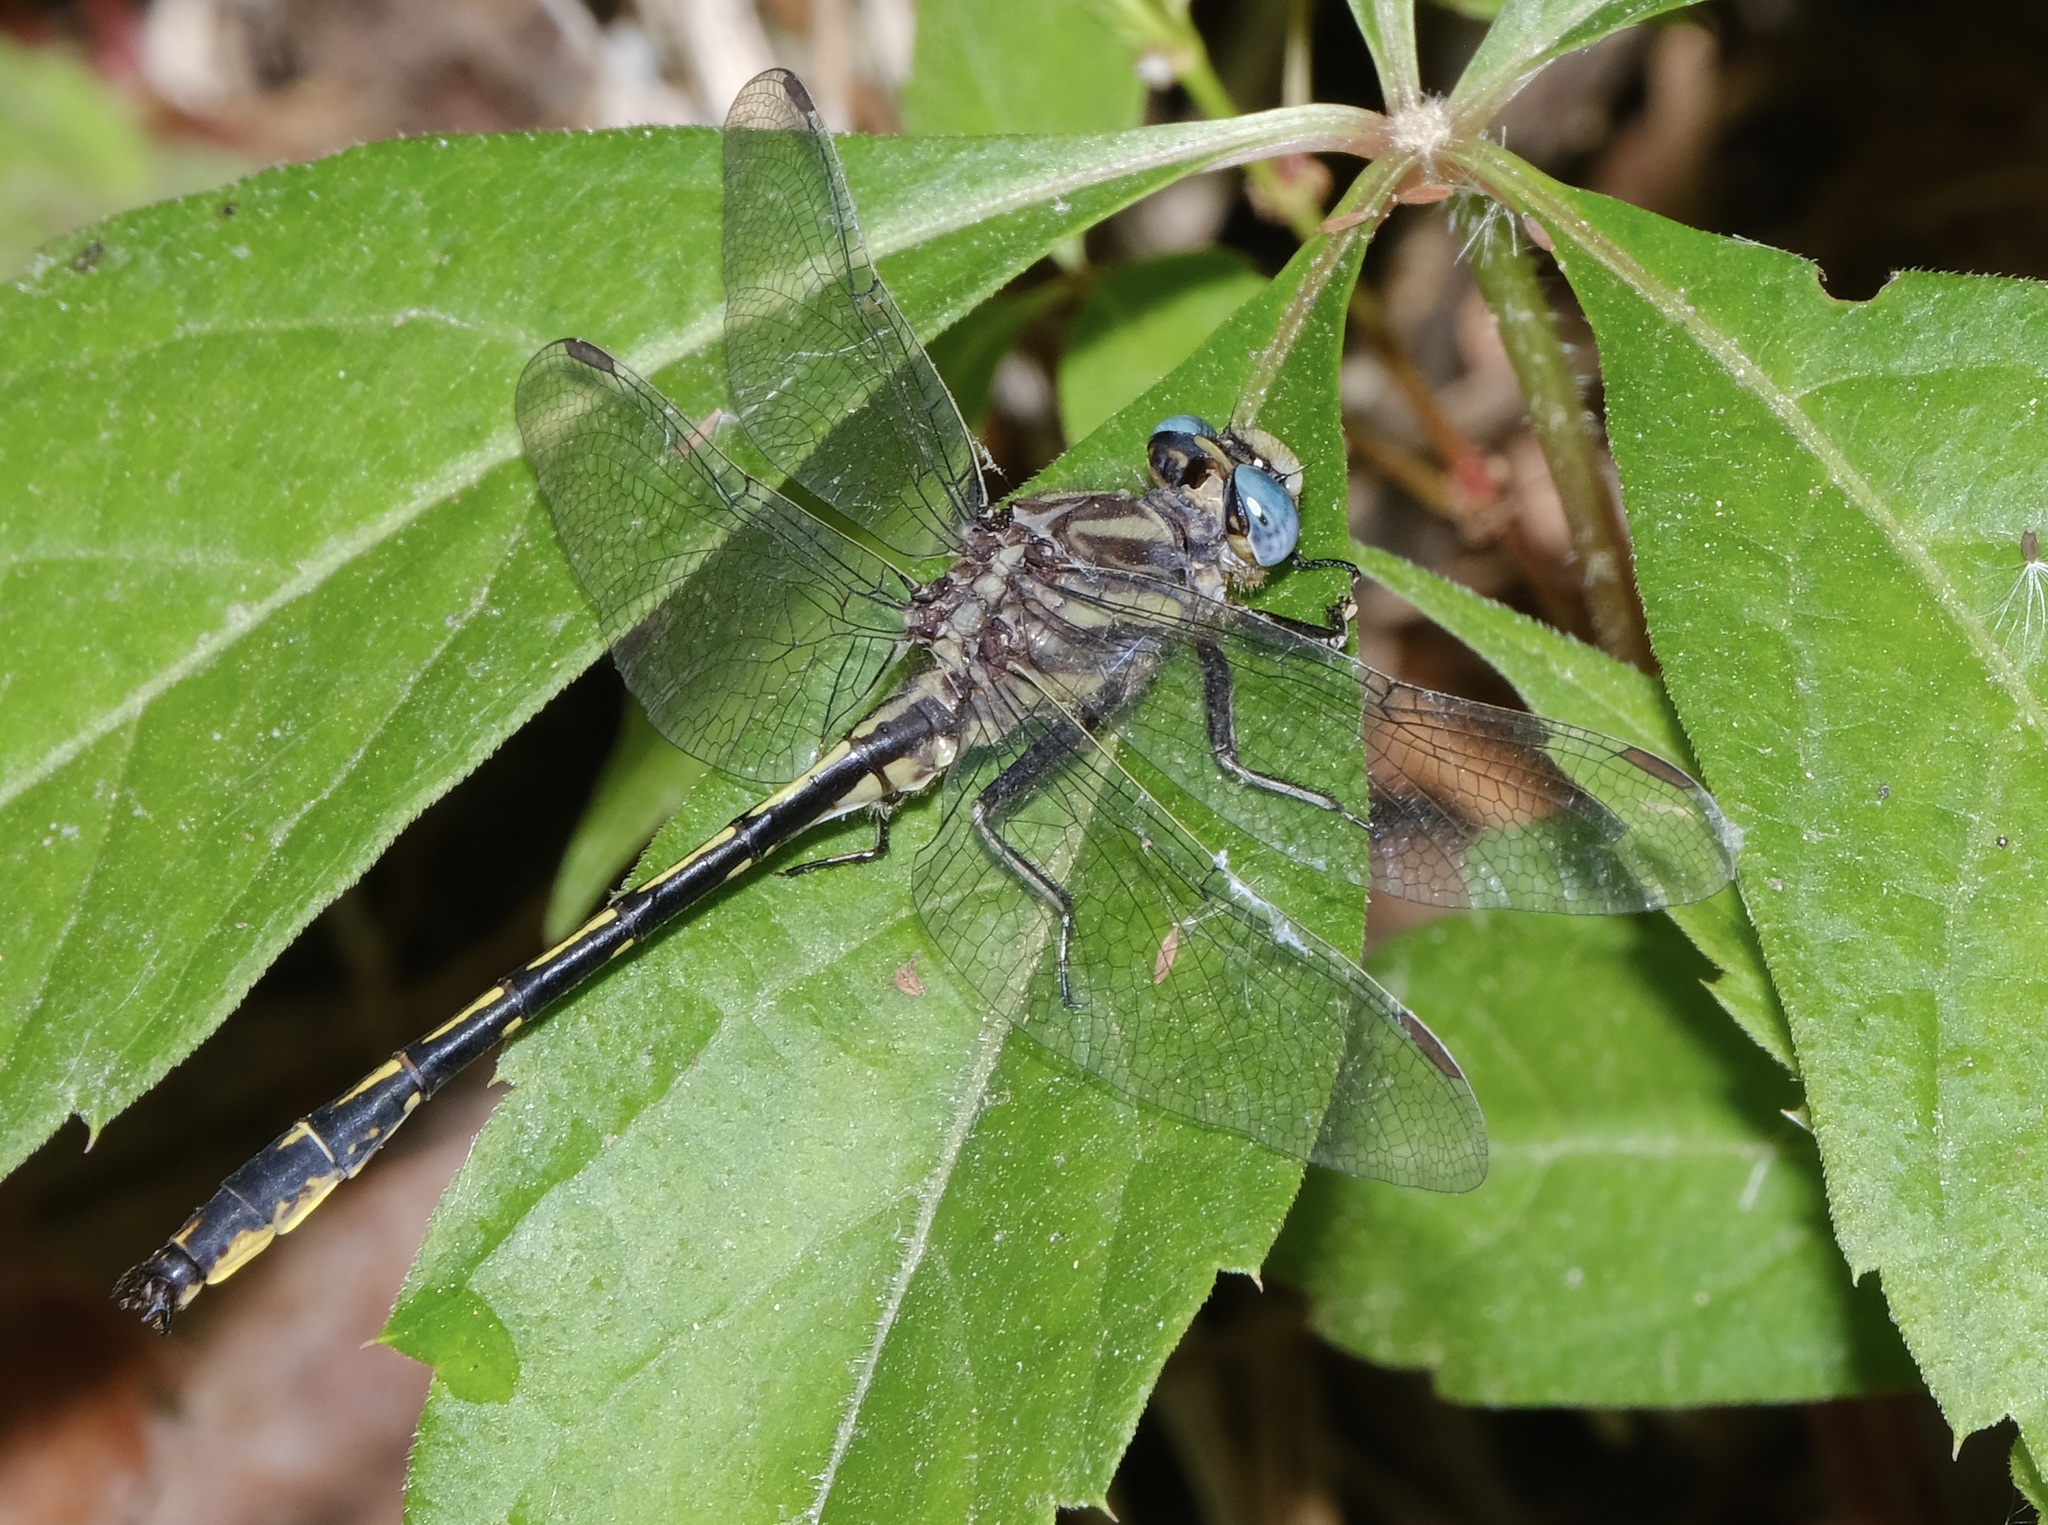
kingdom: Animalia
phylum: Arthropoda
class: Insecta
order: Odonata
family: Gomphidae
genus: Phanogomphus
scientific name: Phanogomphus oklahomensis
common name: Oklahoma clubtail
